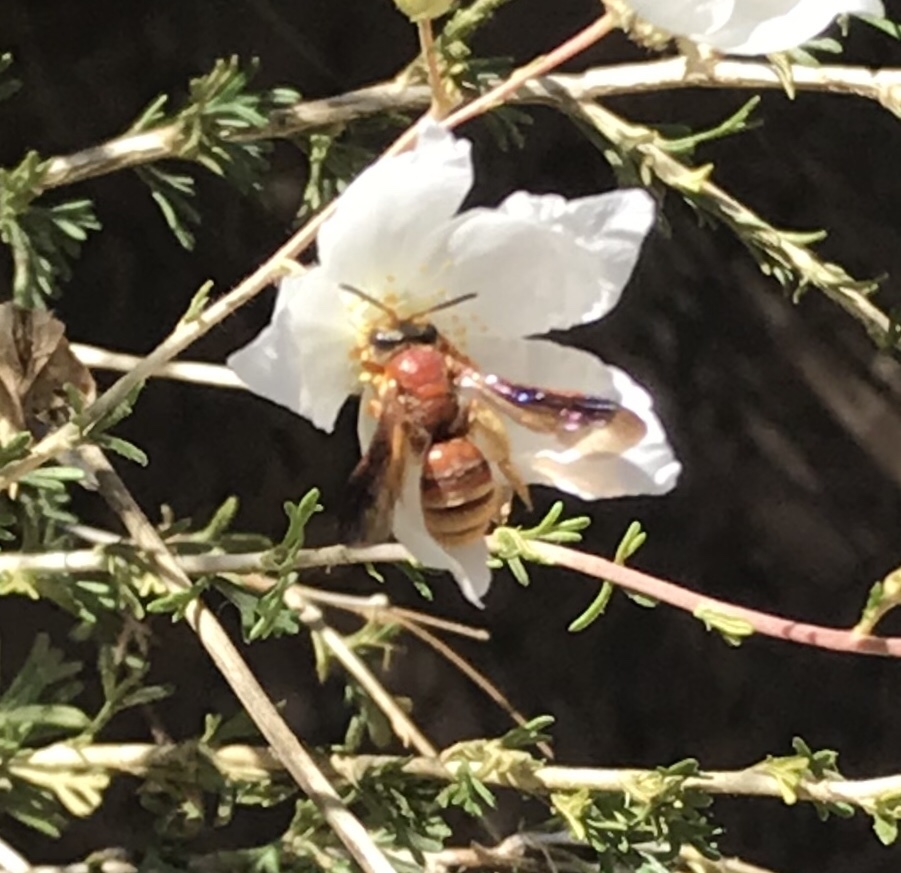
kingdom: Animalia
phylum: Arthropoda
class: Insecta
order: Hymenoptera
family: Andrenidae
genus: Andrena
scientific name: Andrena mellea
